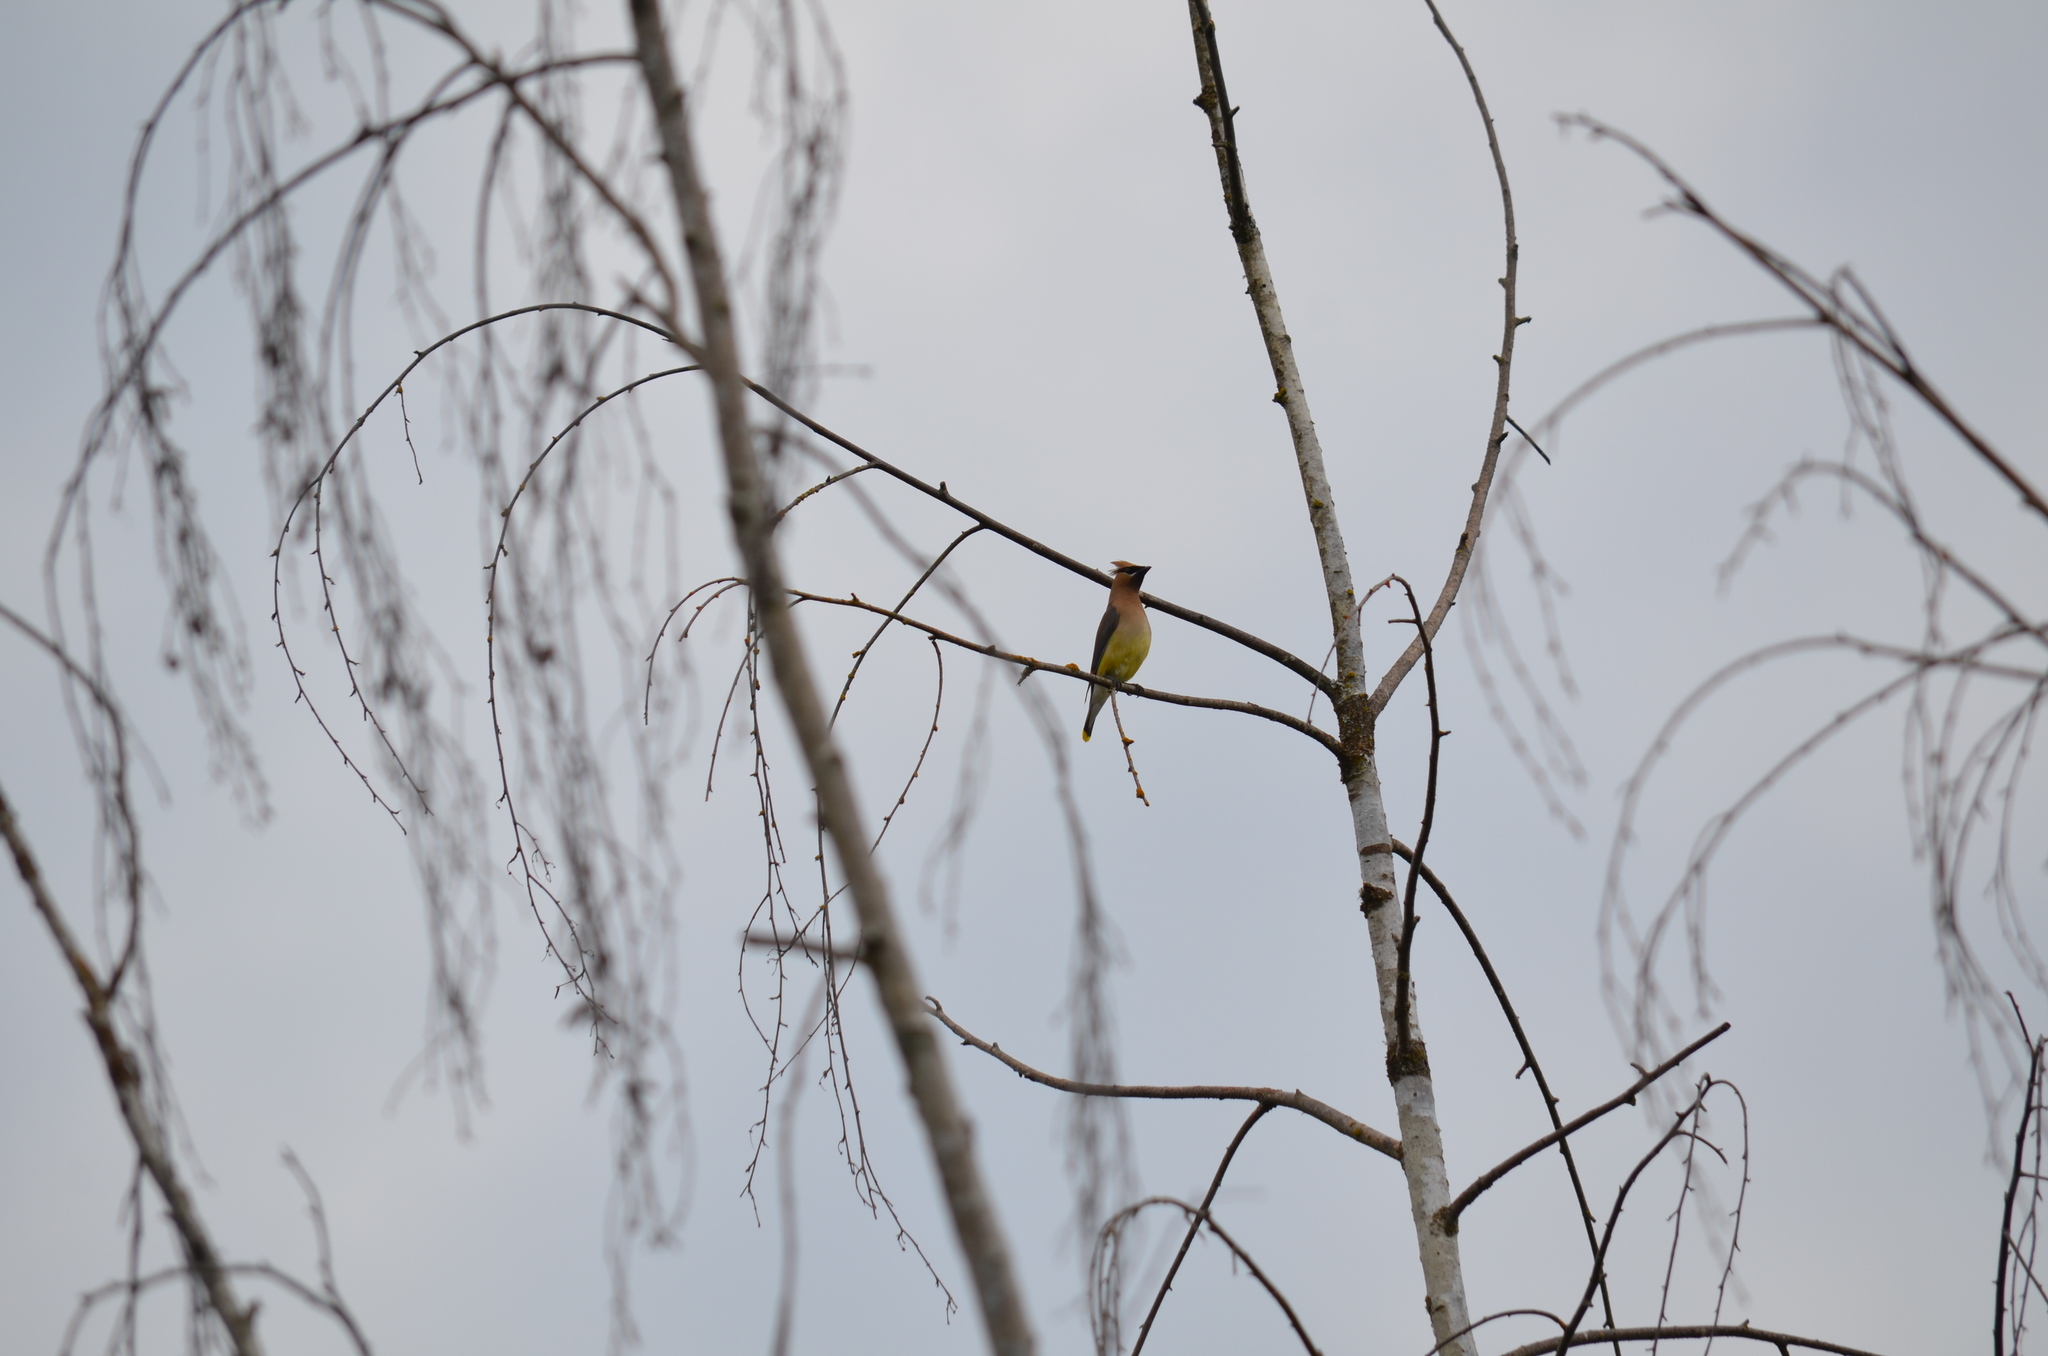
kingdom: Animalia
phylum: Chordata
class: Aves
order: Passeriformes
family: Bombycillidae
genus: Bombycilla
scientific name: Bombycilla cedrorum
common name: Cedar waxwing
